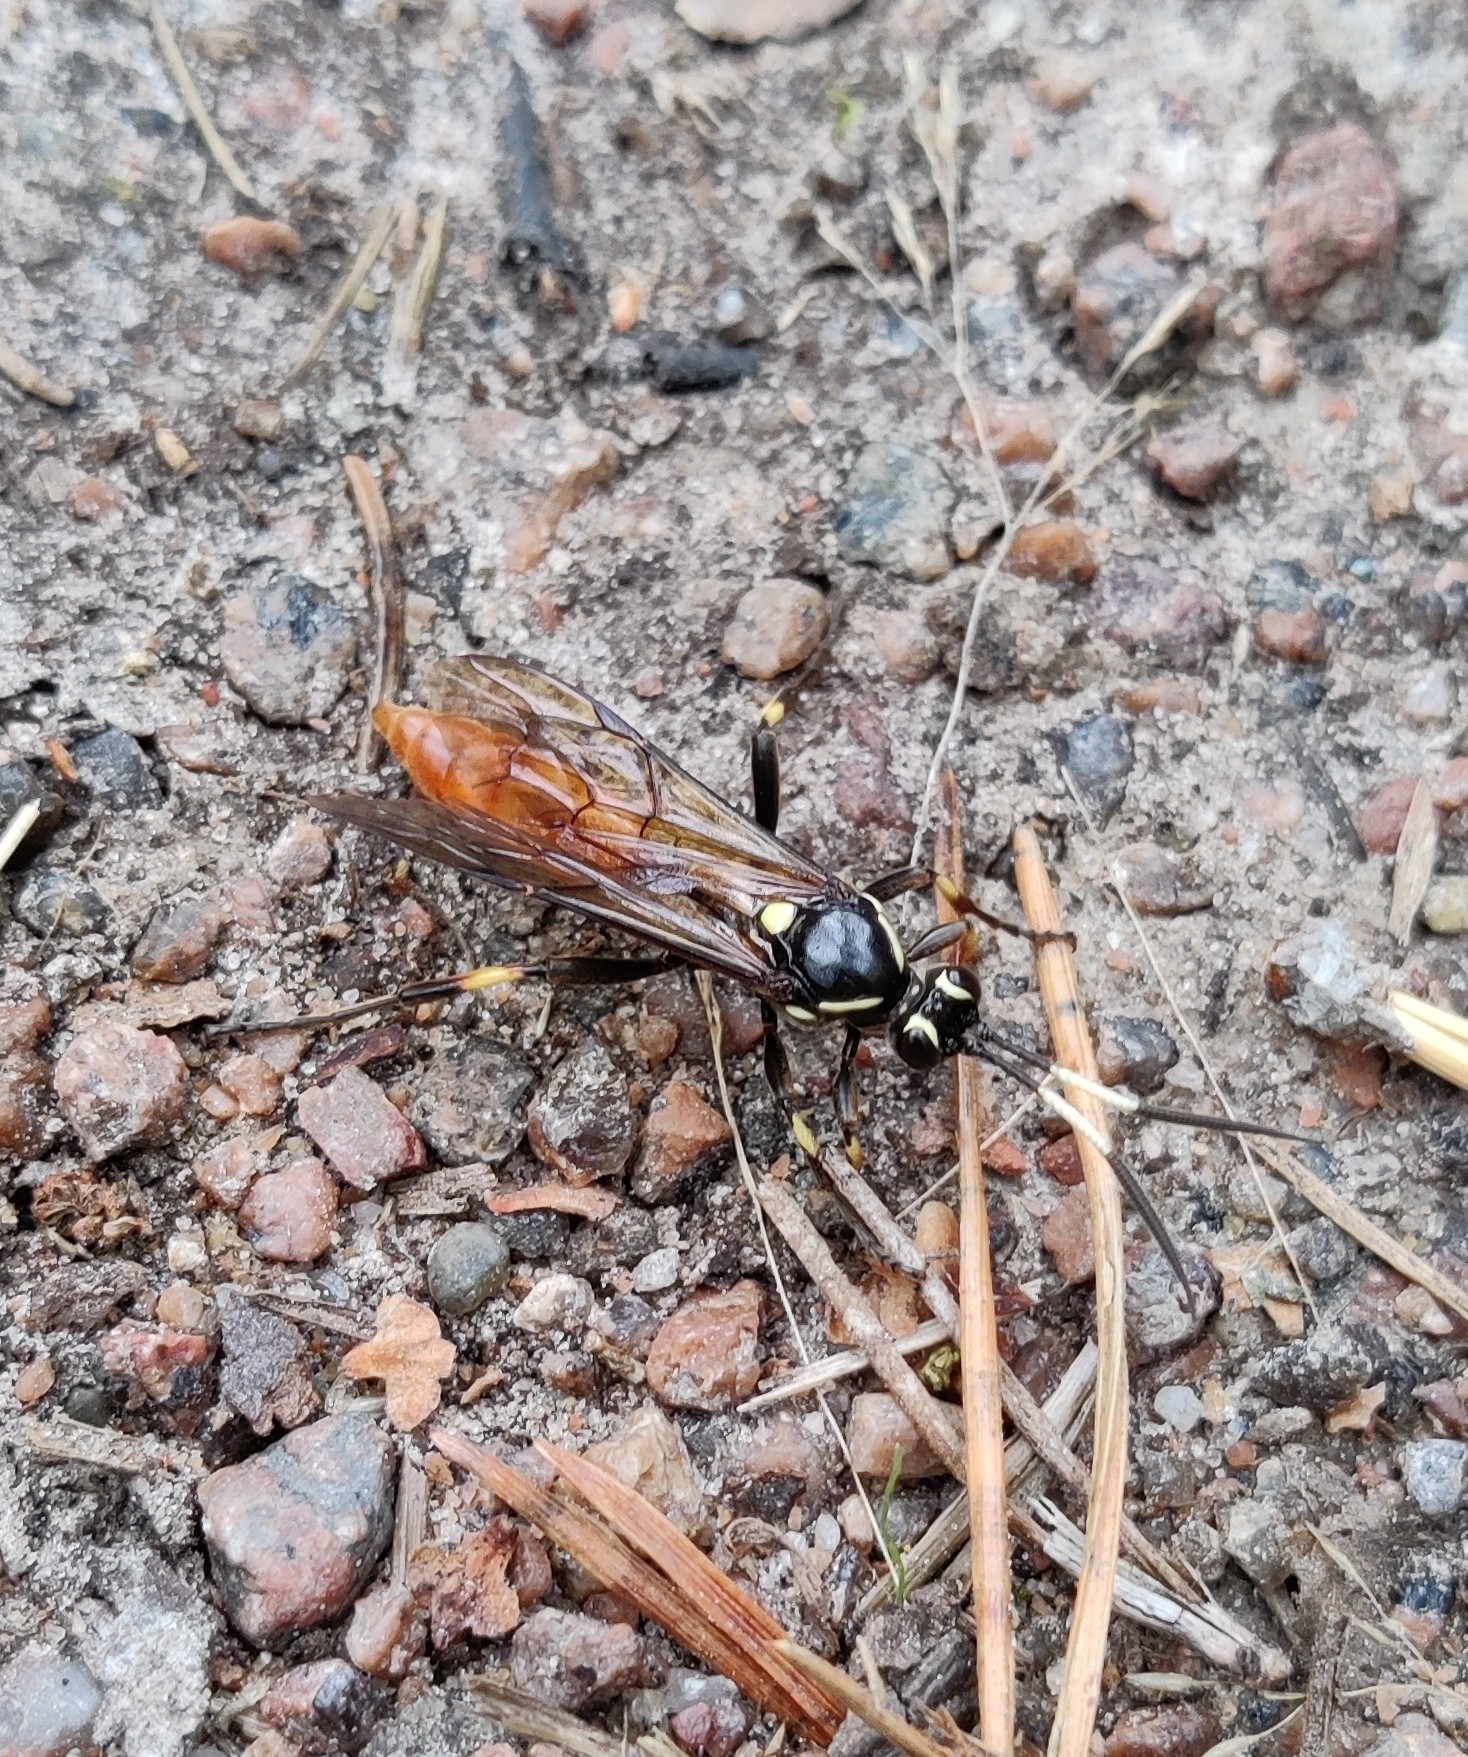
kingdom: Animalia
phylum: Arthropoda
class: Insecta
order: Hymenoptera
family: Ichneumonidae
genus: Protichneumon
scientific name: Protichneumon pisorius
